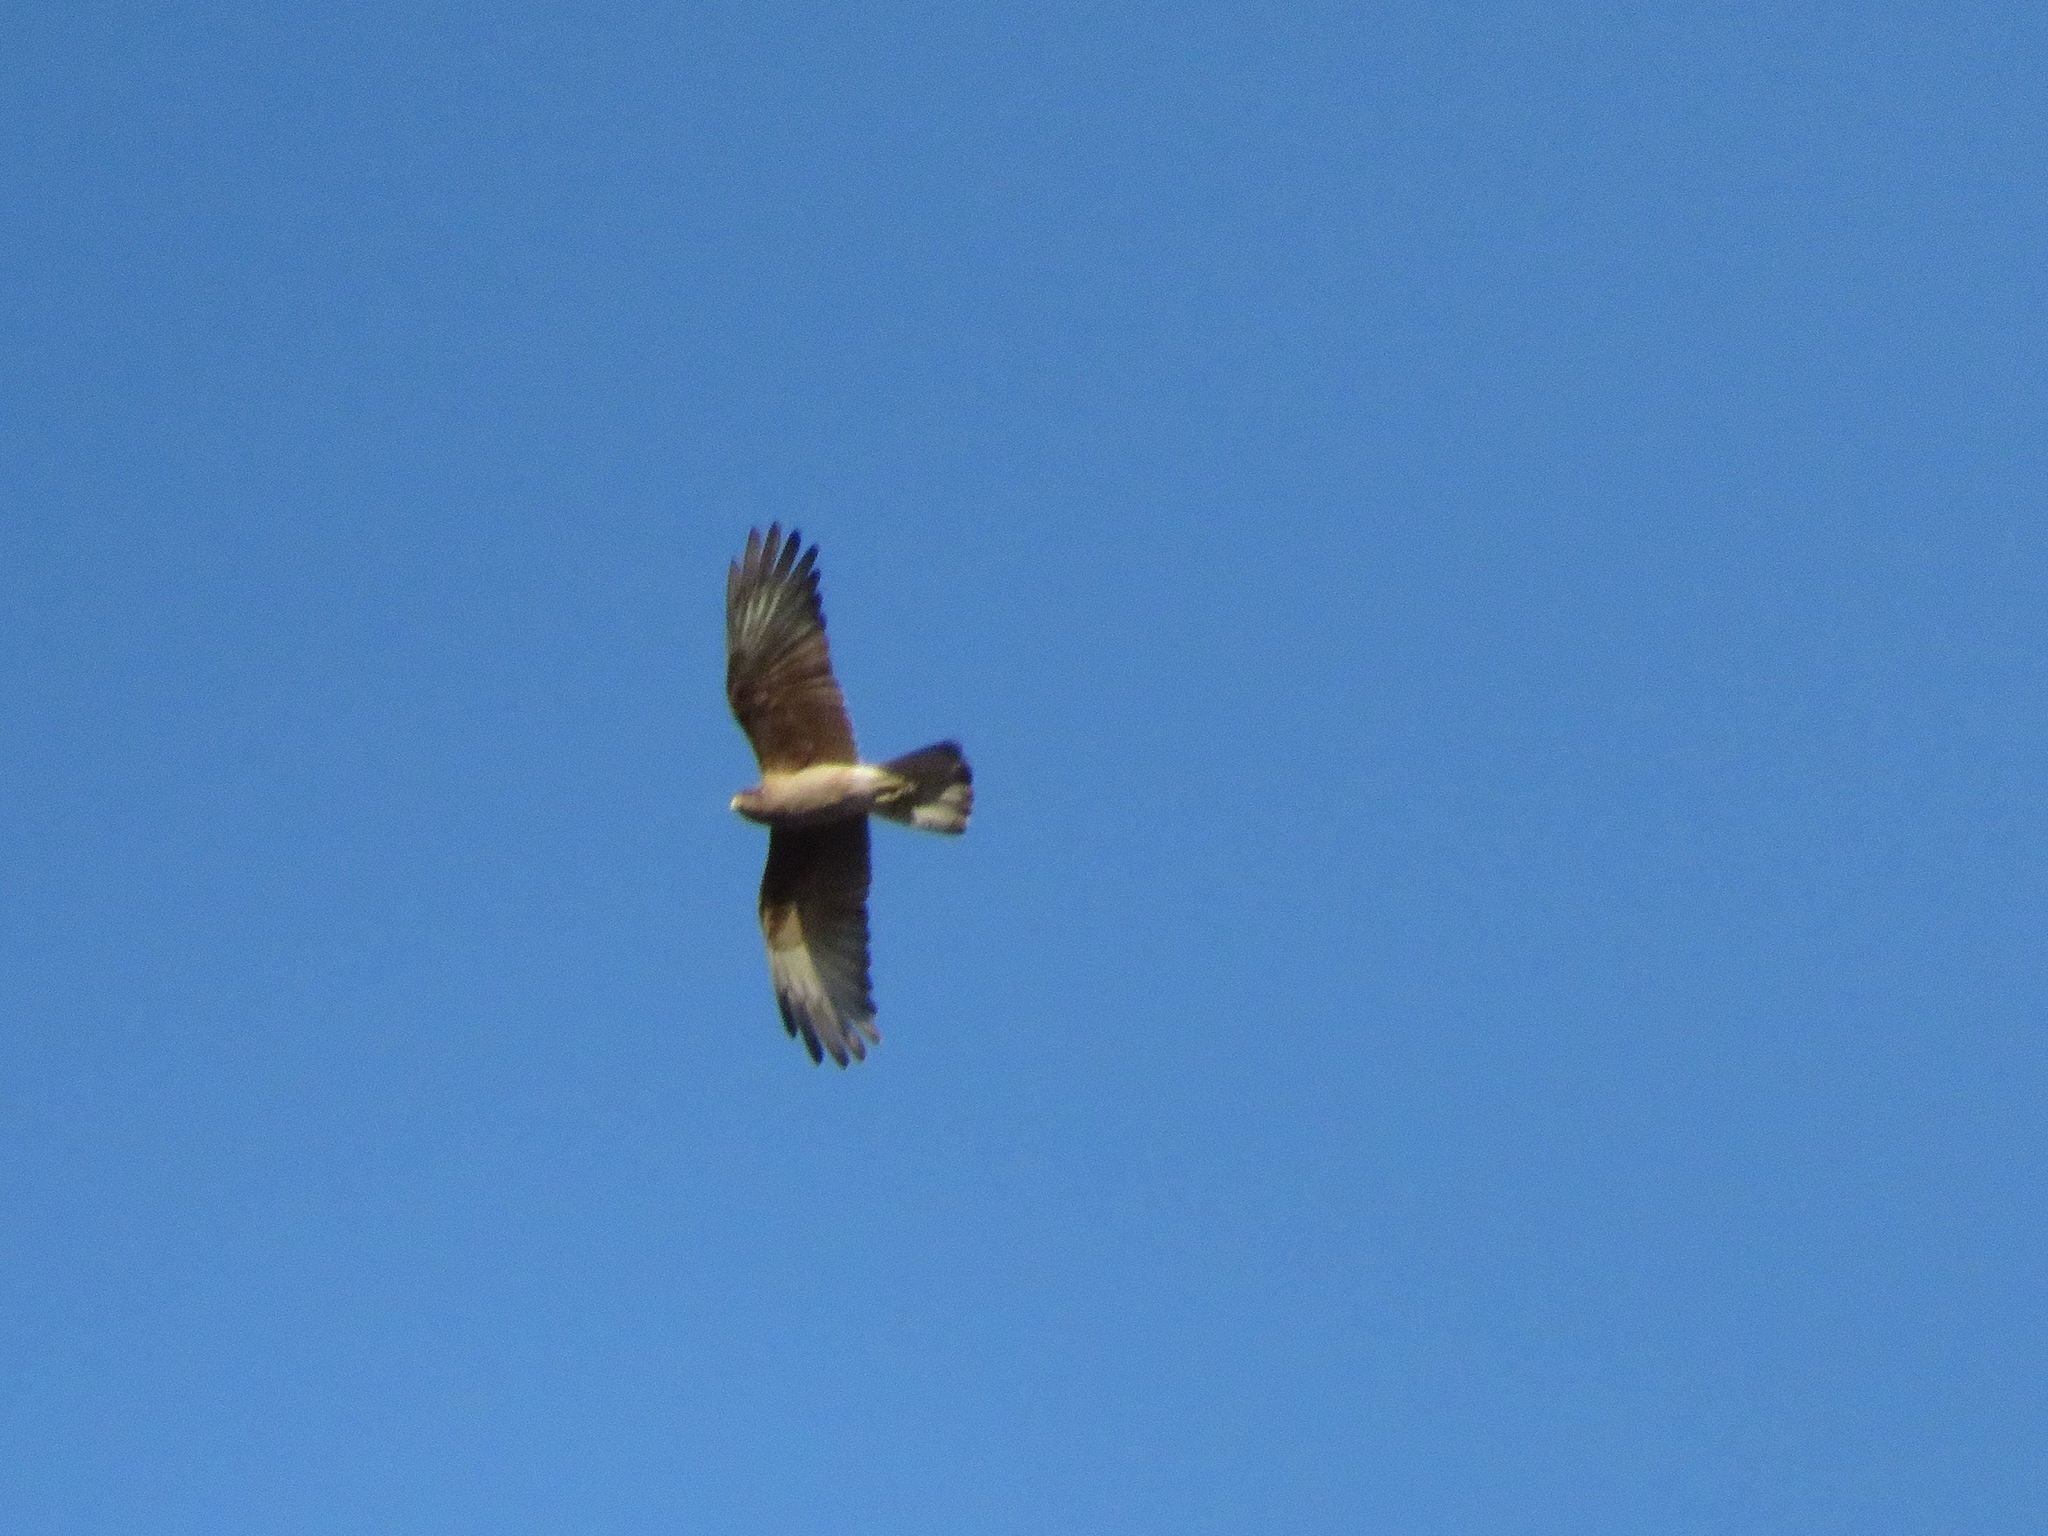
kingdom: Animalia
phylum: Chordata
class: Aves
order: Falconiformes
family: Falconidae
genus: Daptrius
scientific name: Daptrius
